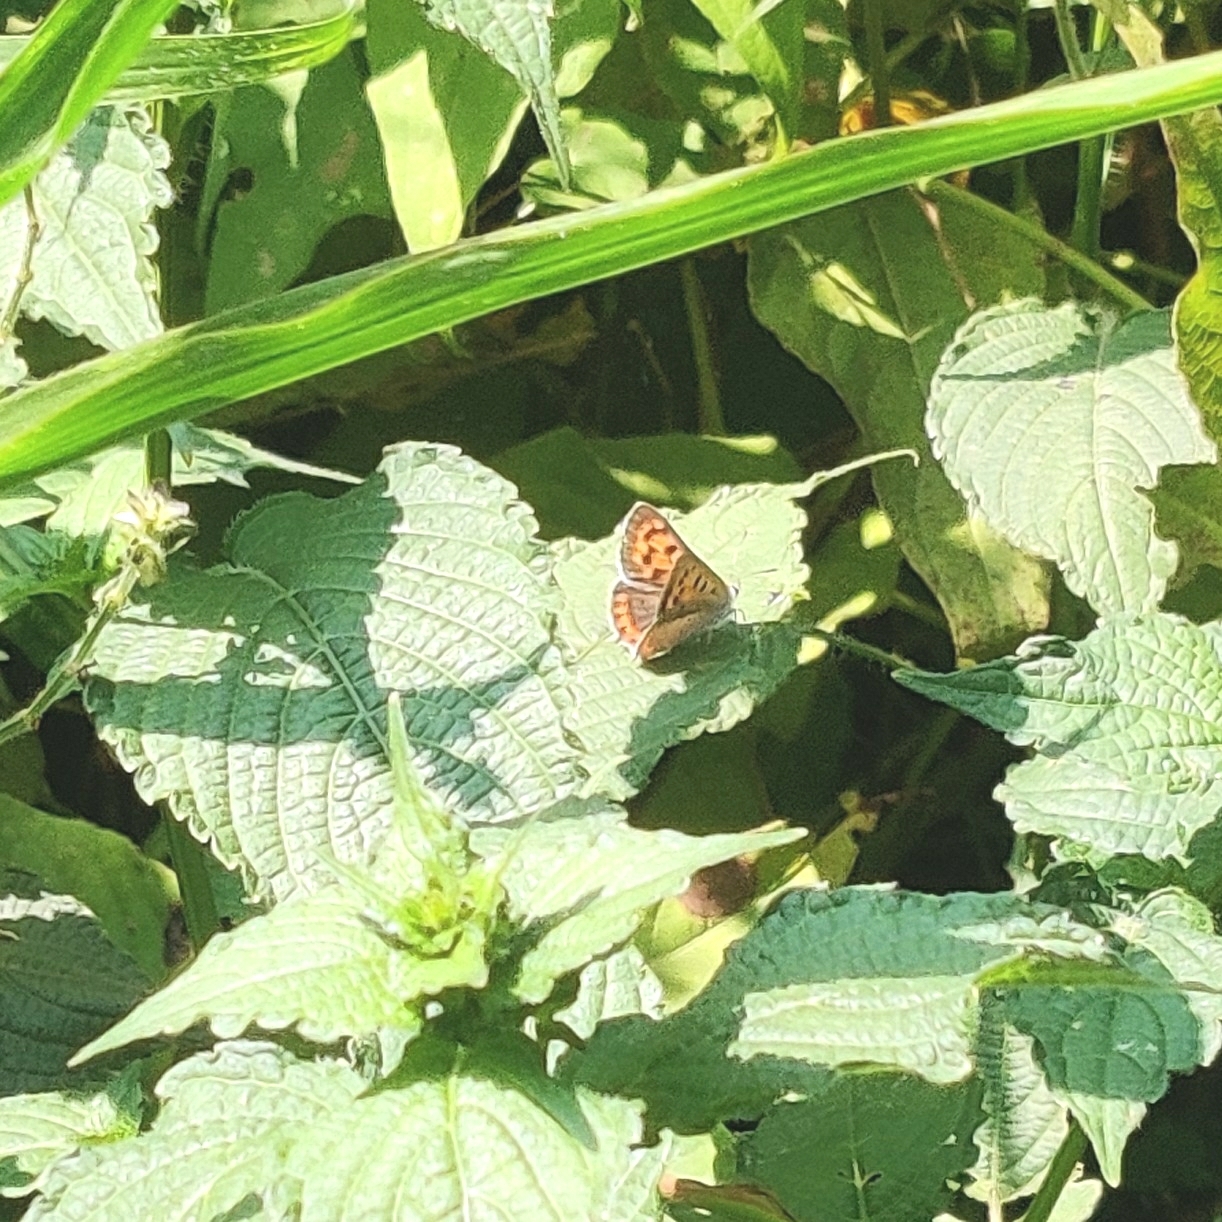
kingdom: Animalia
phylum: Arthropoda
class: Insecta
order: Lepidoptera
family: Lycaenidae
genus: Lycaena
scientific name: Lycaena phlaeas
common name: Small copper
